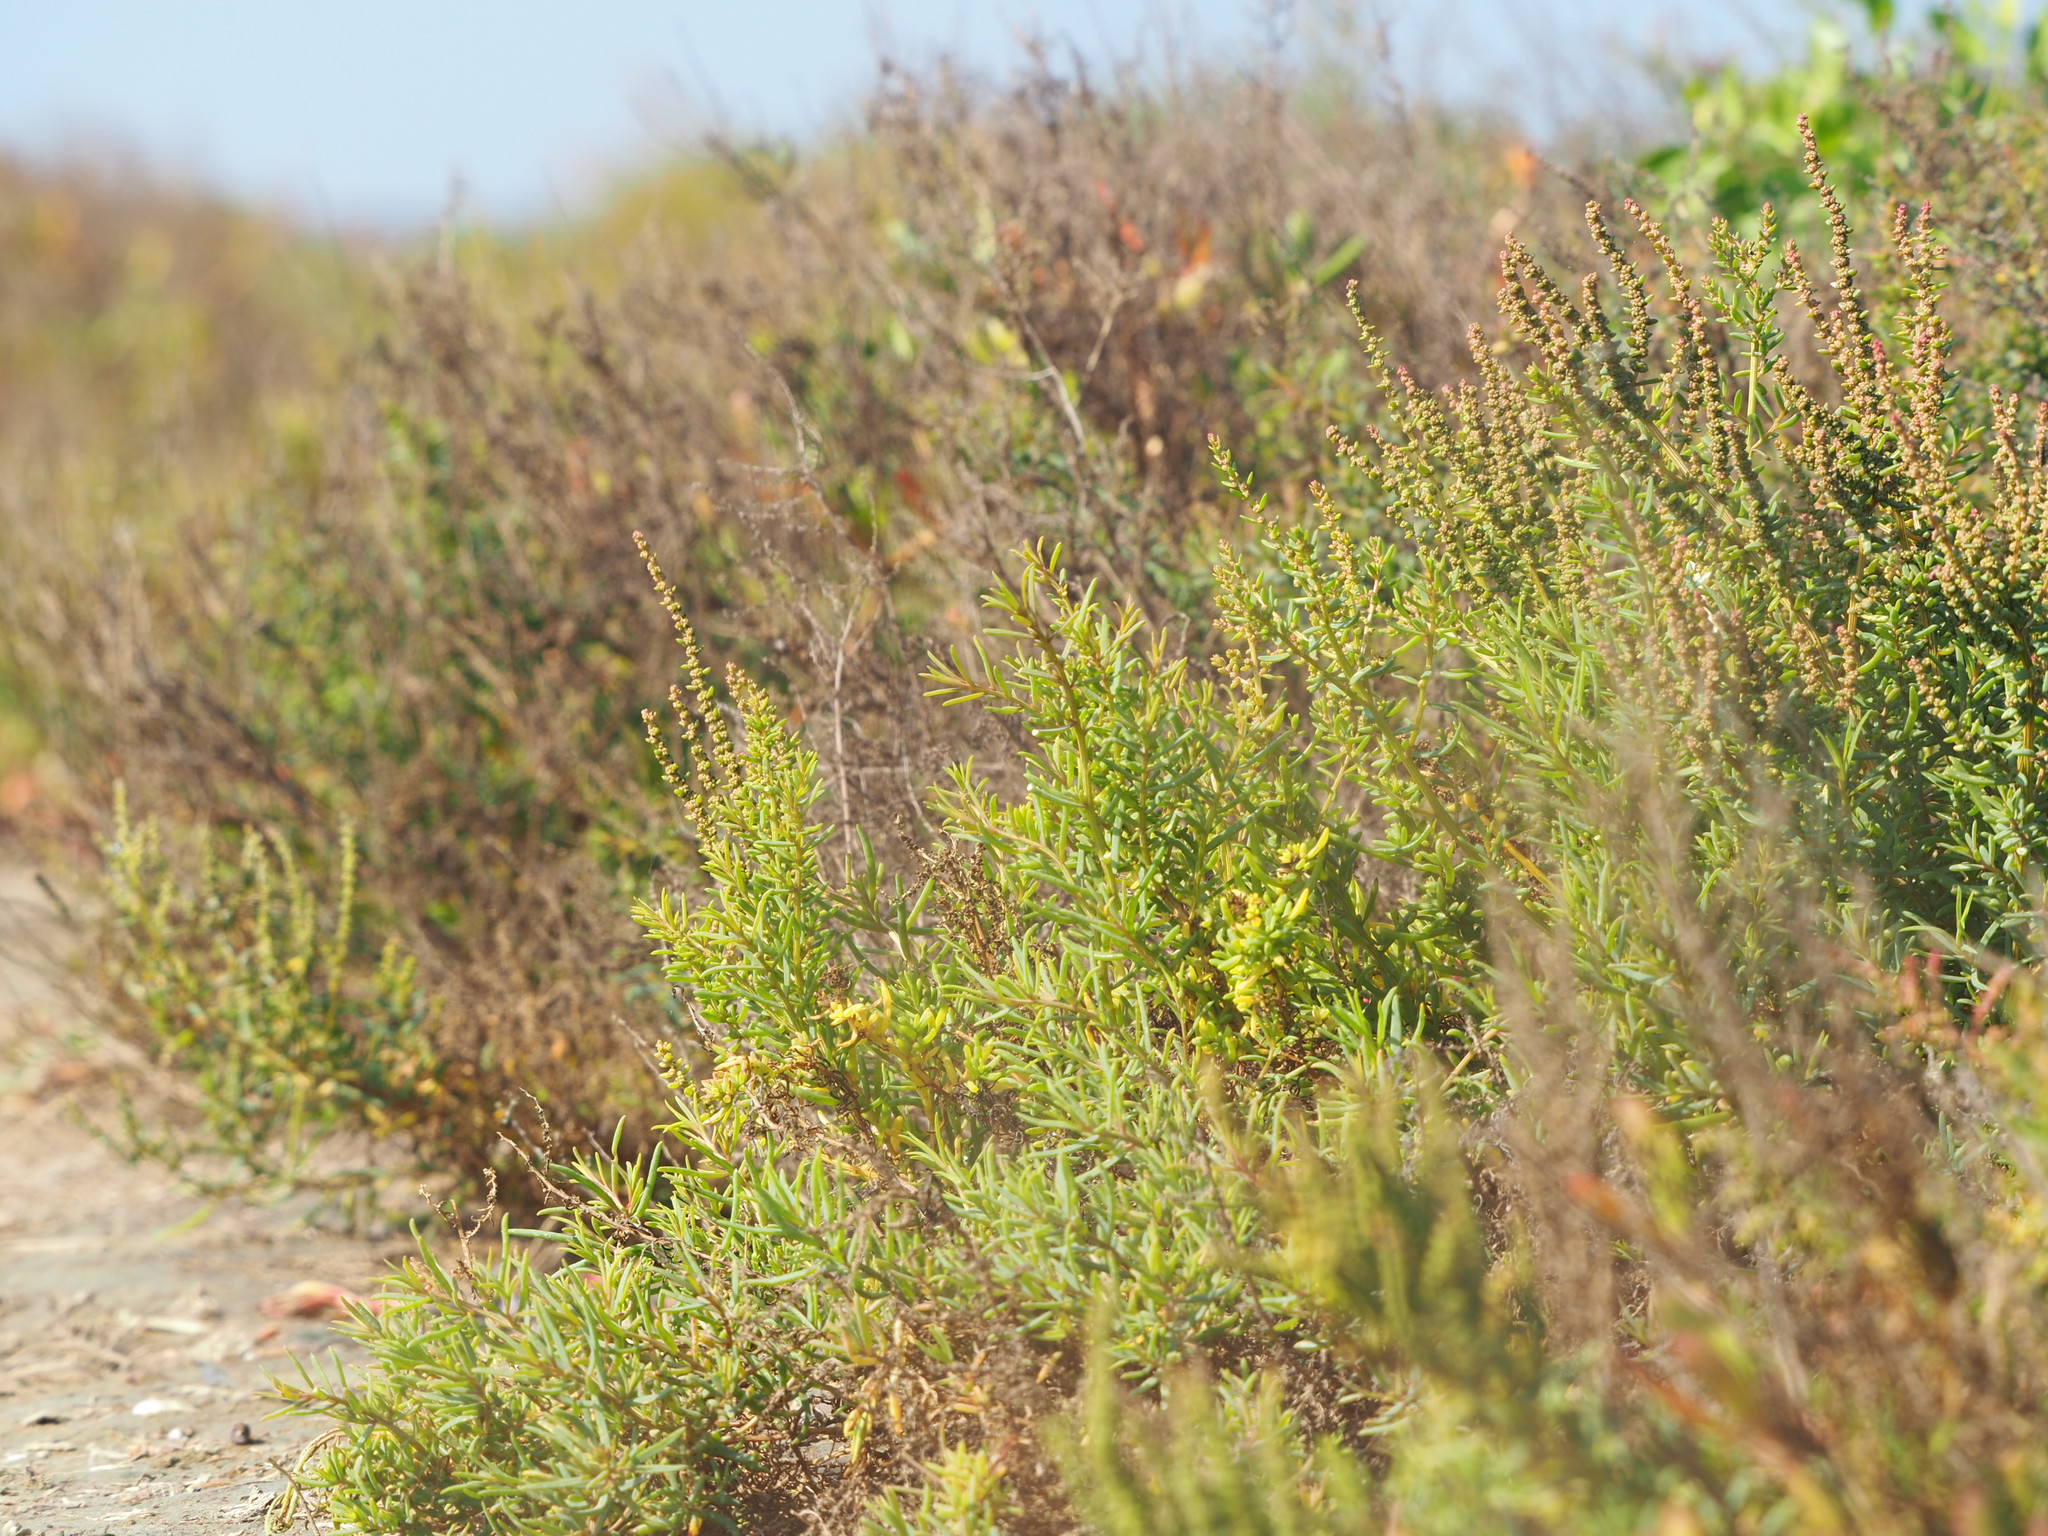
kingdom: Plantae
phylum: Tracheophyta
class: Magnoliopsida
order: Caryophyllales
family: Amaranthaceae
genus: Suaeda
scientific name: Suaeda maritima
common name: Annual sea-blite
